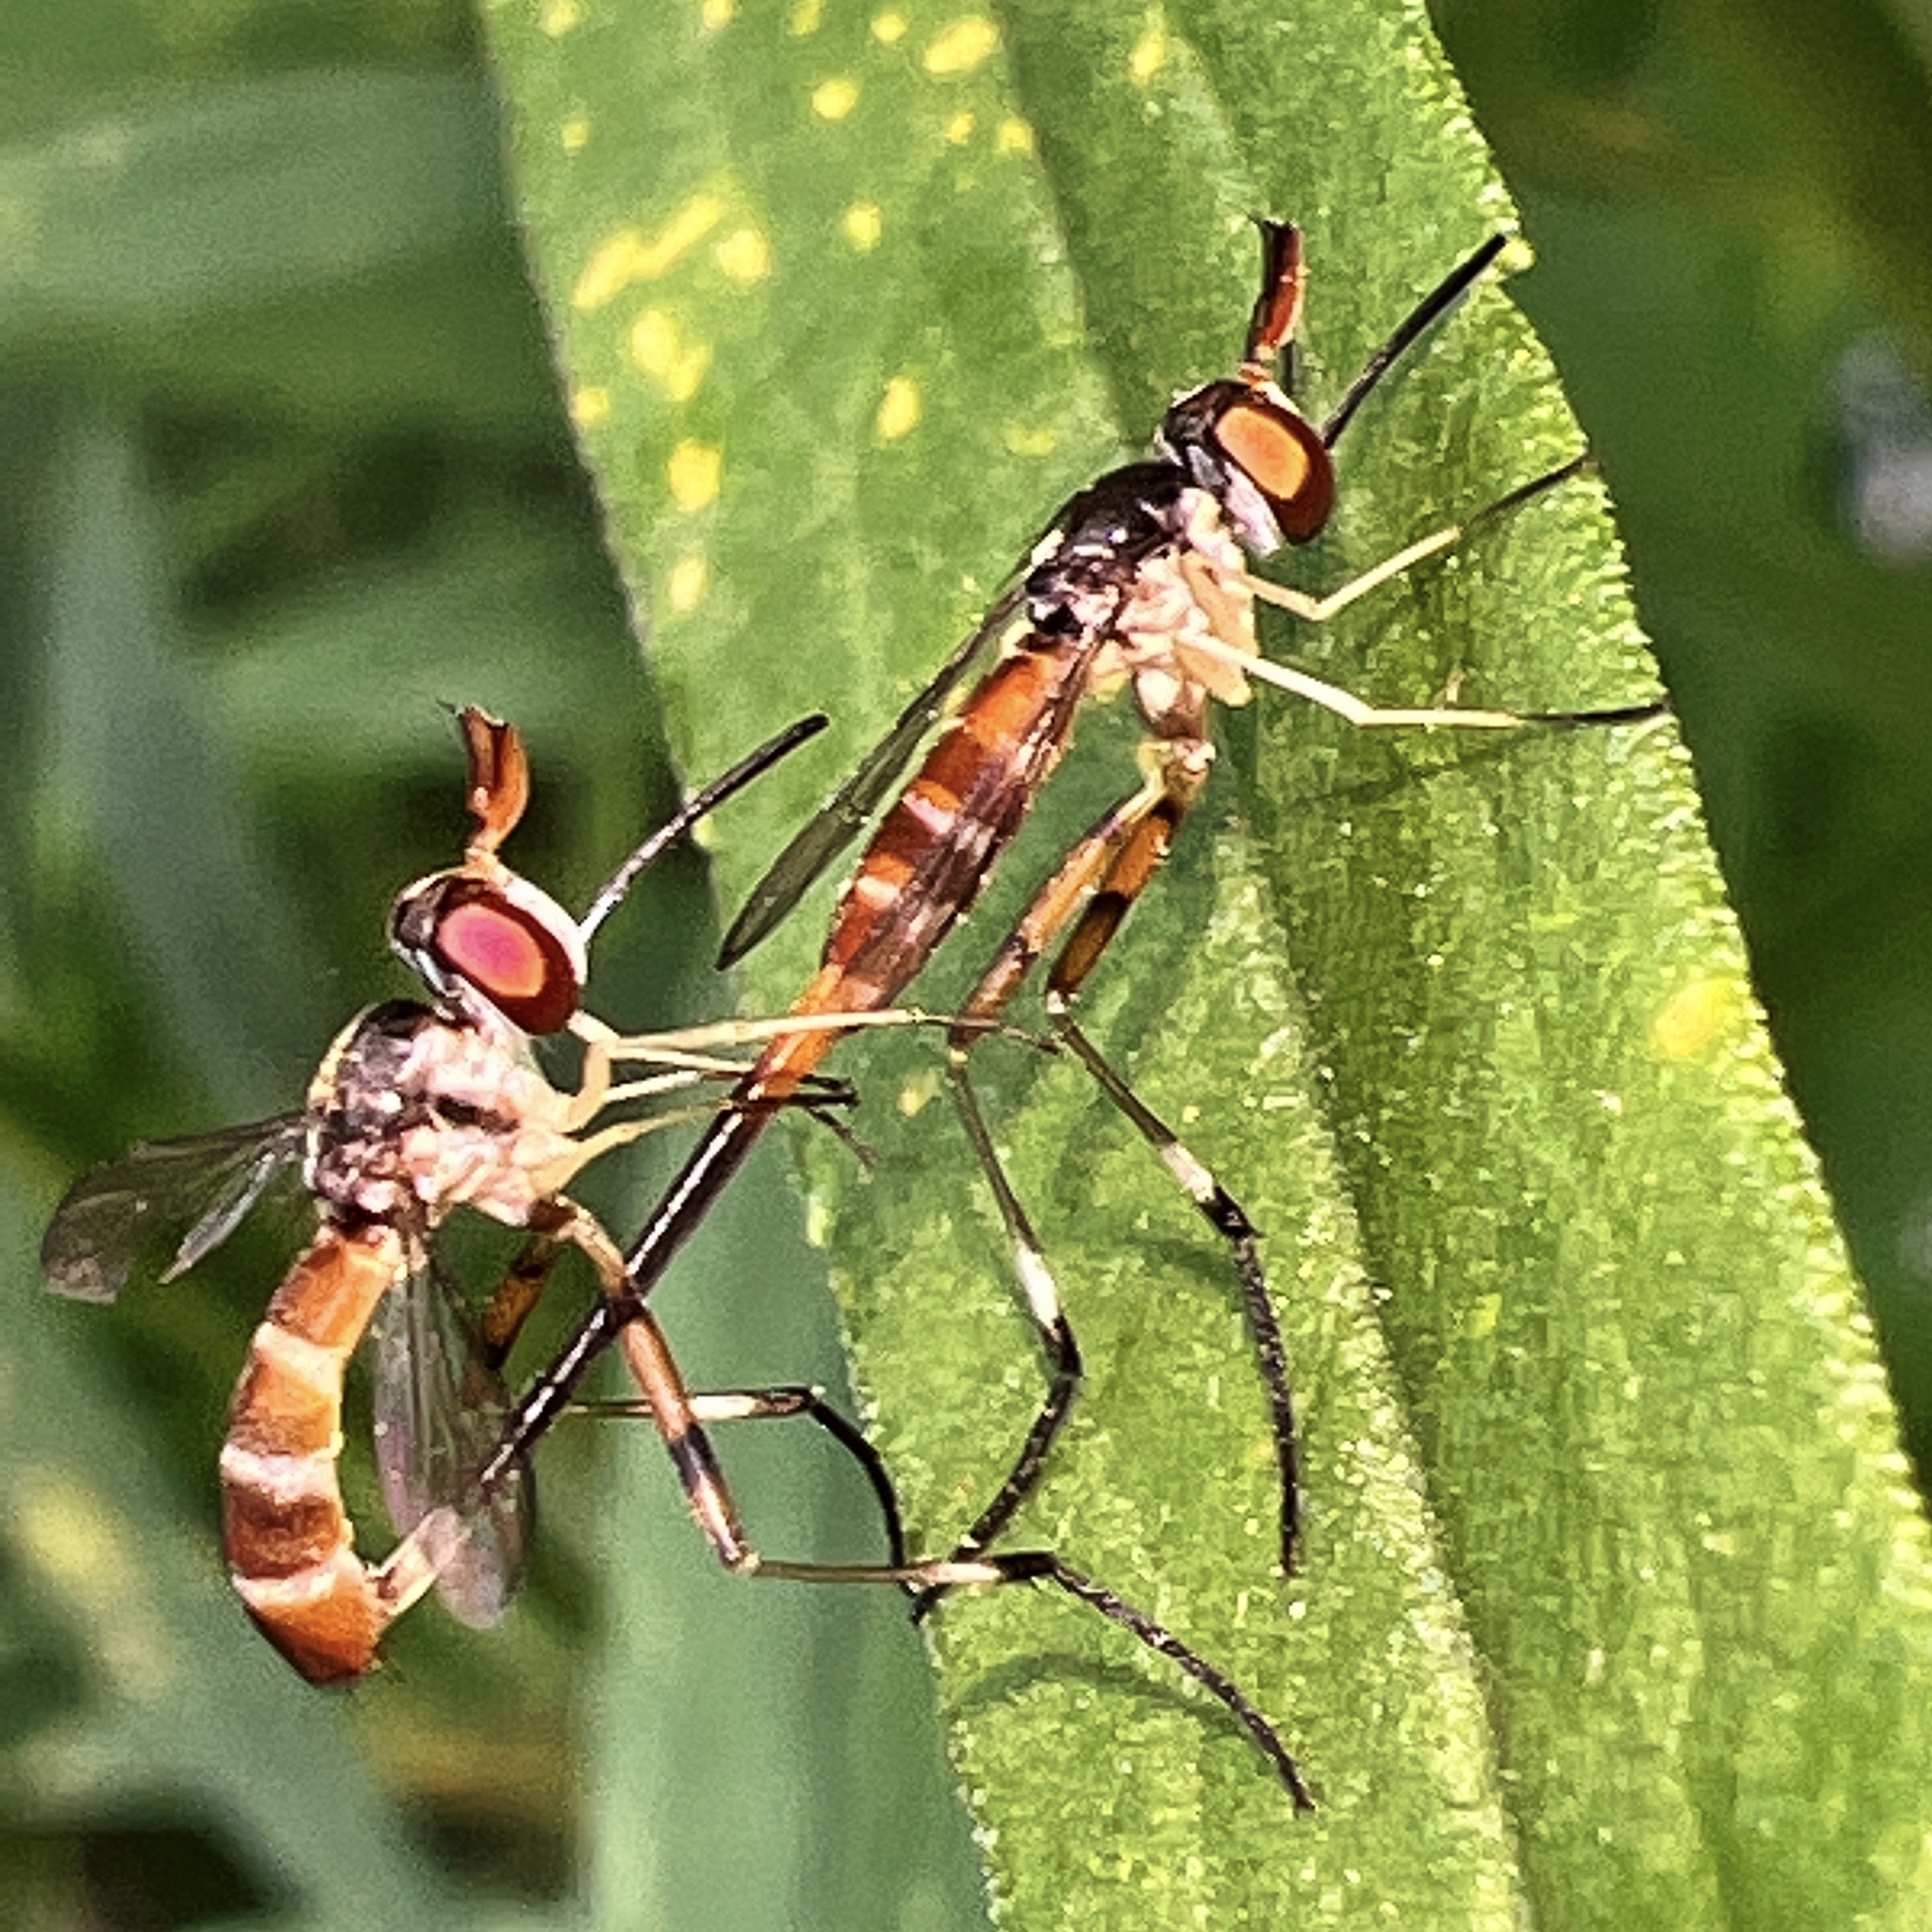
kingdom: Animalia
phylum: Arthropoda
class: Insecta
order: Diptera
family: Conopidae
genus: Stylogaster
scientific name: Stylogaster neglecta
